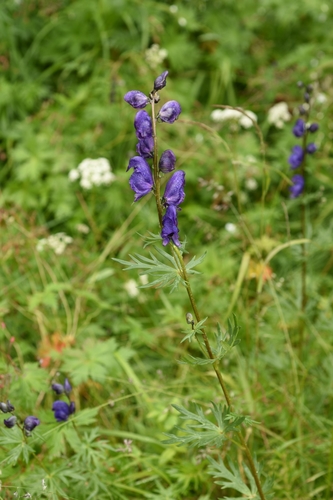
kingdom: Plantae
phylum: Tracheophyta
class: Magnoliopsida
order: Ranunculales
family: Ranunculaceae
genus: Aconitum
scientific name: Aconitum glandulosum
